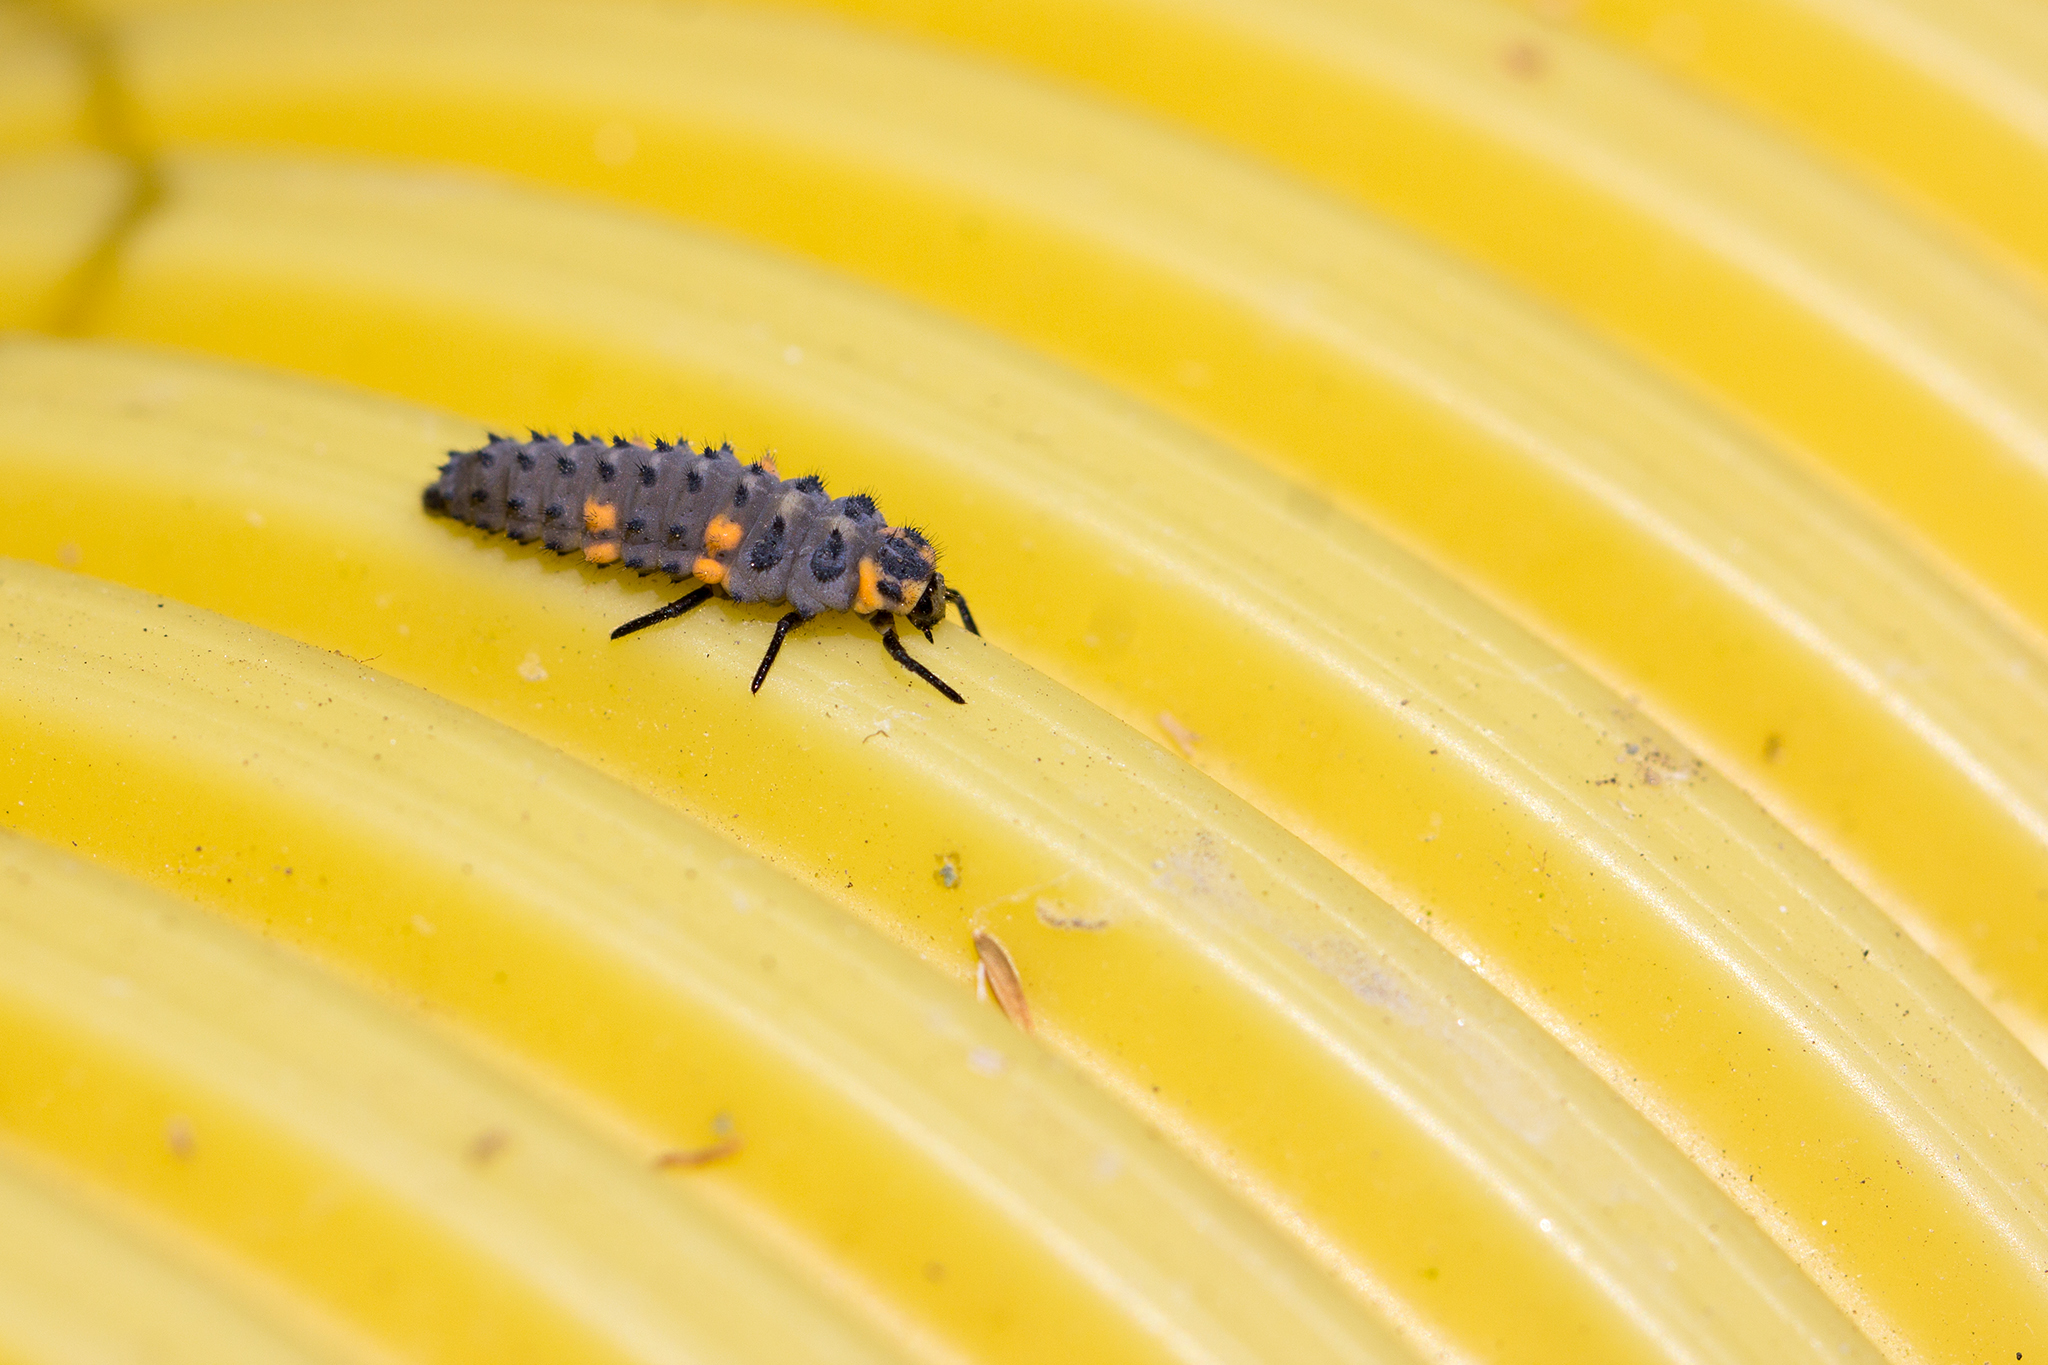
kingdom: Animalia
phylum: Arthropoda
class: Insecta
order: Coleoptera
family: Coccinellidae
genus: Coccinella
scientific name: Coccinella septempunctata
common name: Sevenspotted lady beetle
